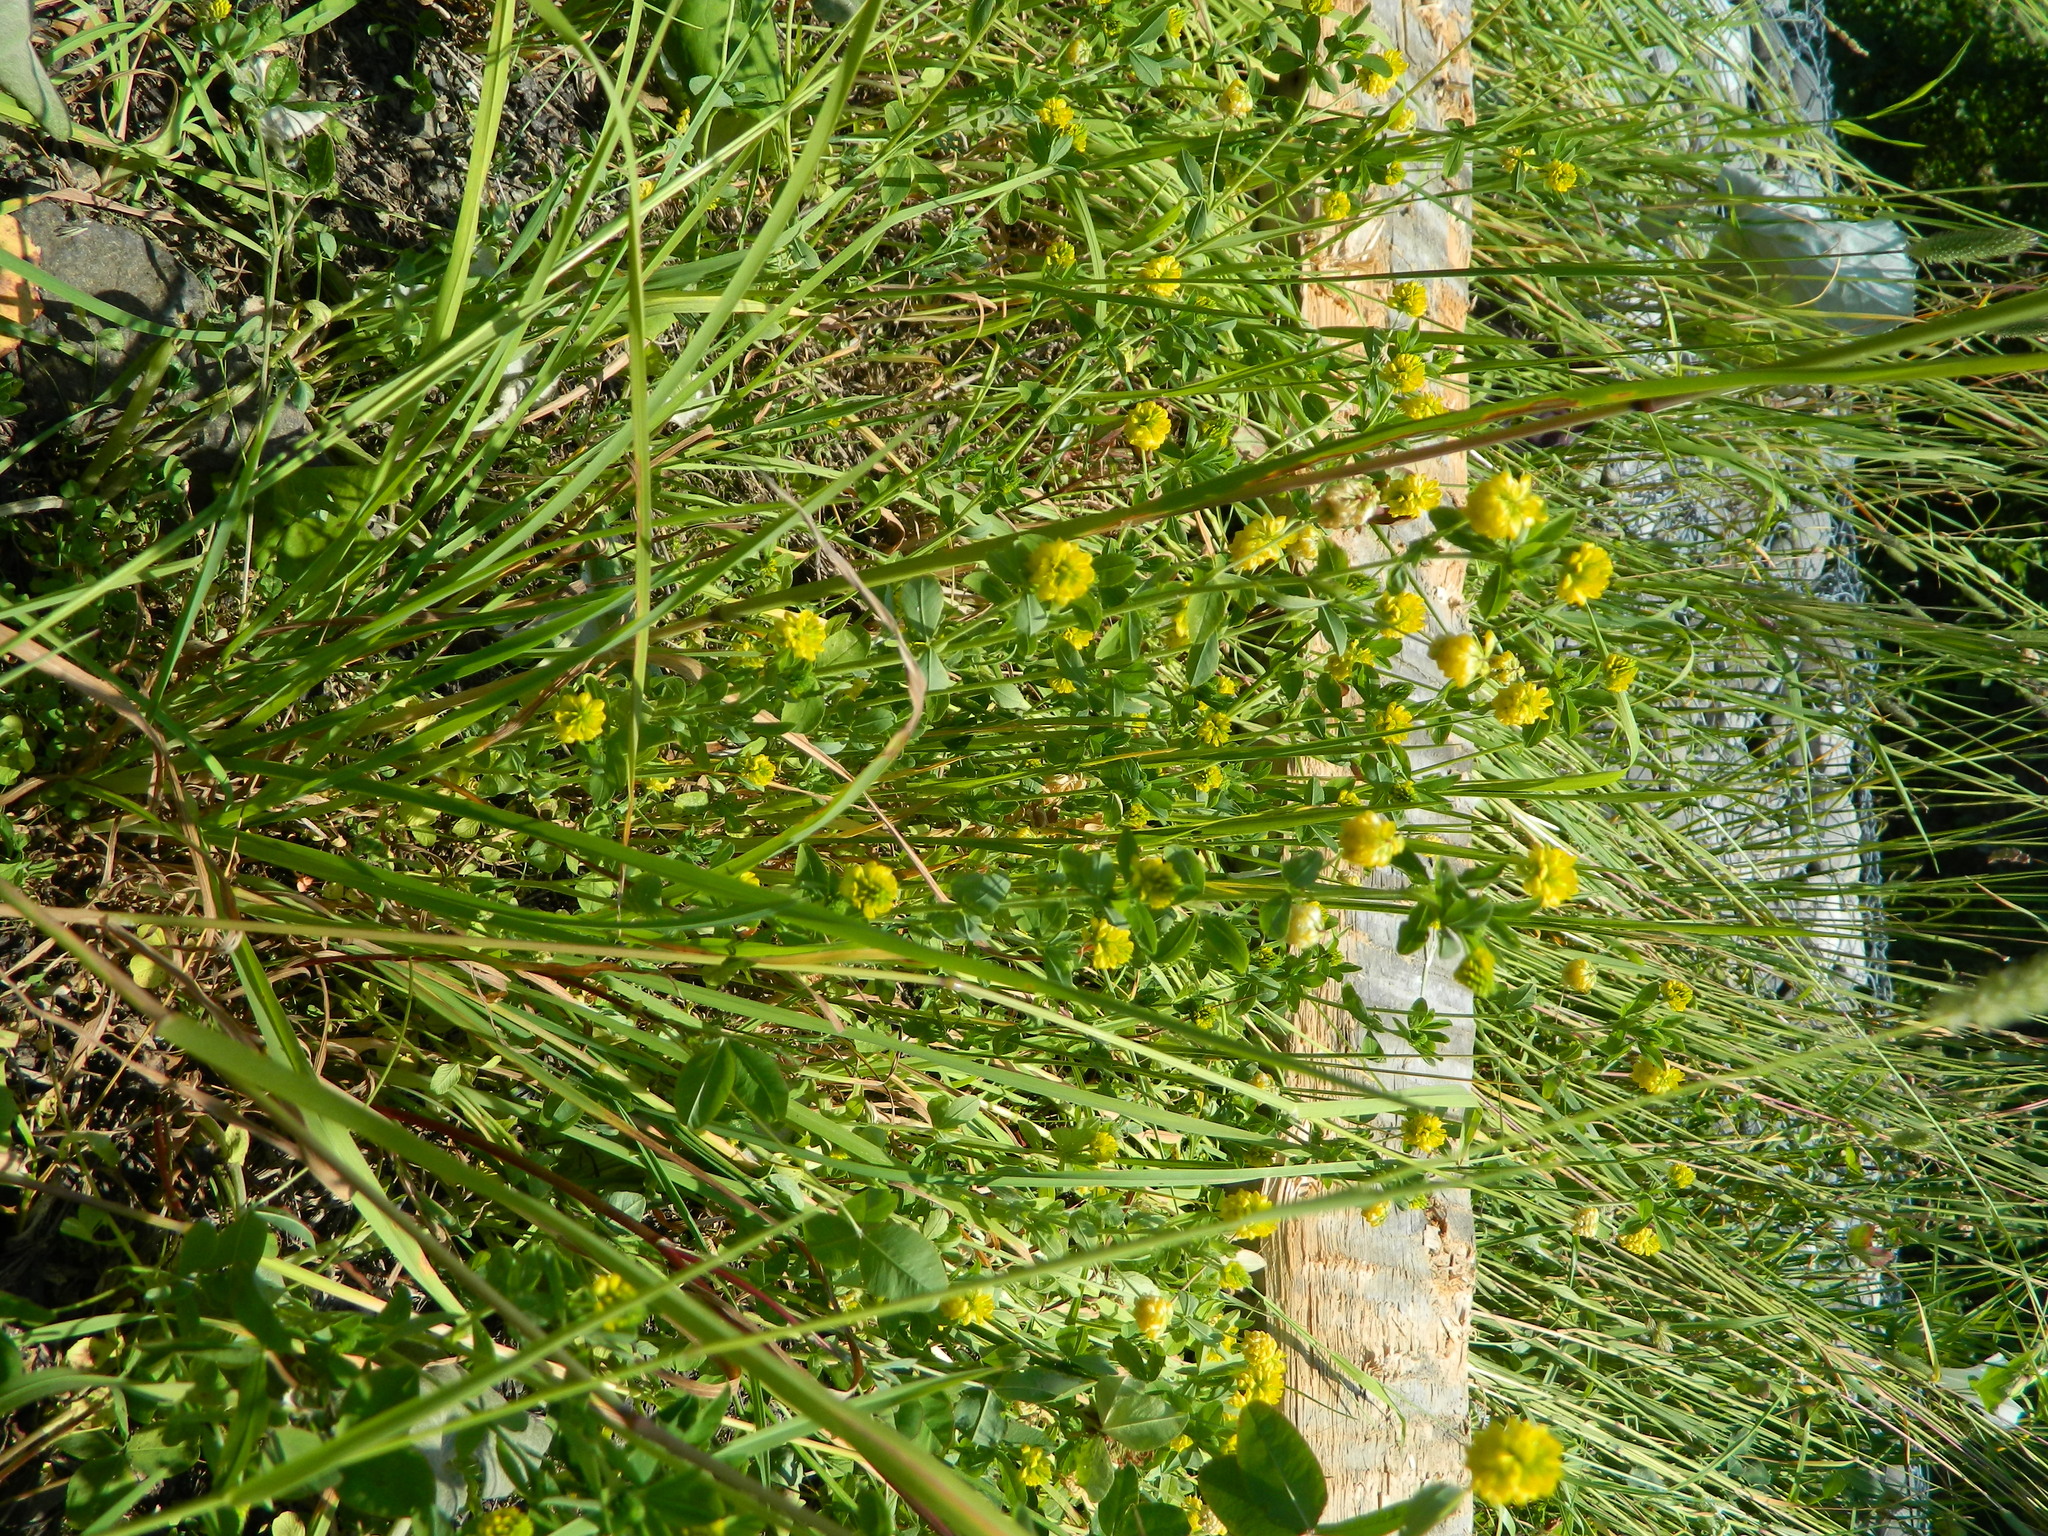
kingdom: Plantae
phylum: Tracheophyta
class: Magnoliopsida
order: Fabales
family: Fabaceae
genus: Trifolium
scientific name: Trifolium aureum
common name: Golden clover
